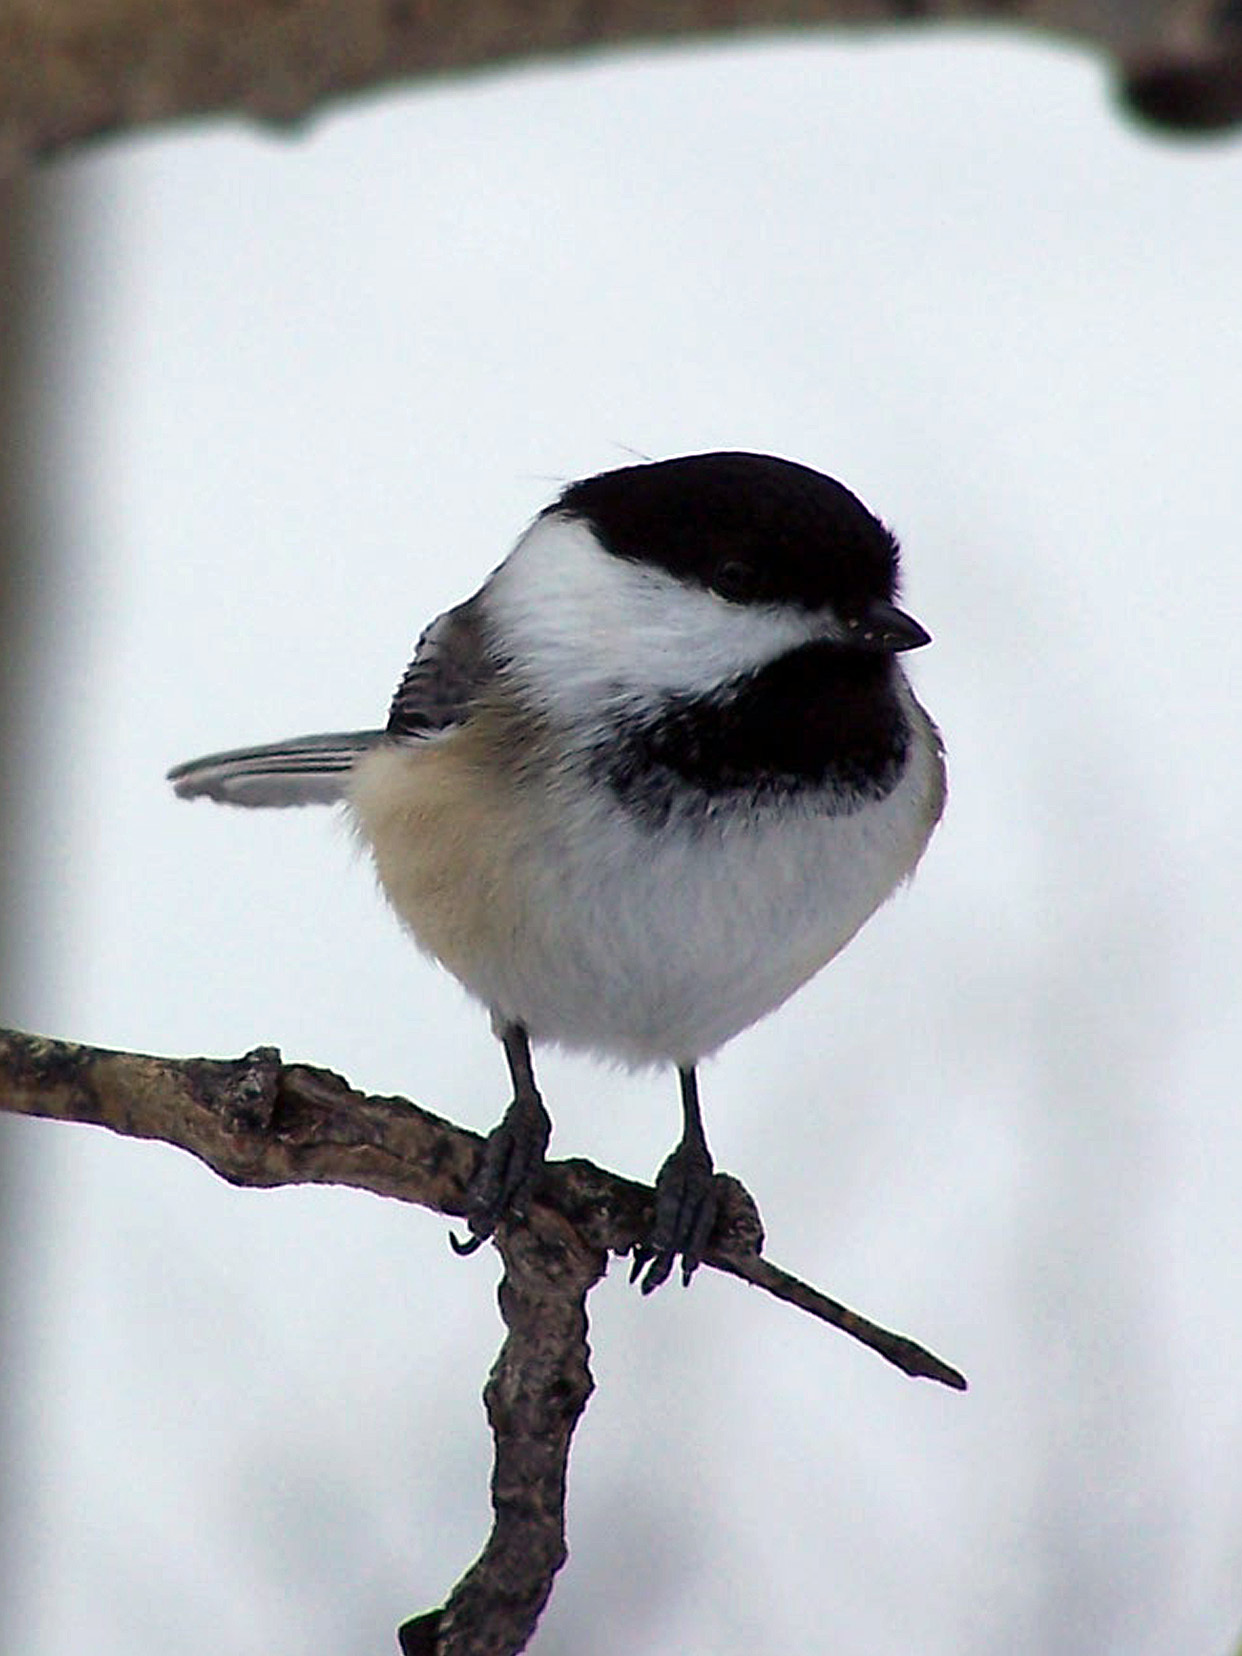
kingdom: Animalia
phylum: Chordata
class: Aves
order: Passeriformes
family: Paridae
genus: Poecile
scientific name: Poecile atricapillus
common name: Black-capped chickadee
